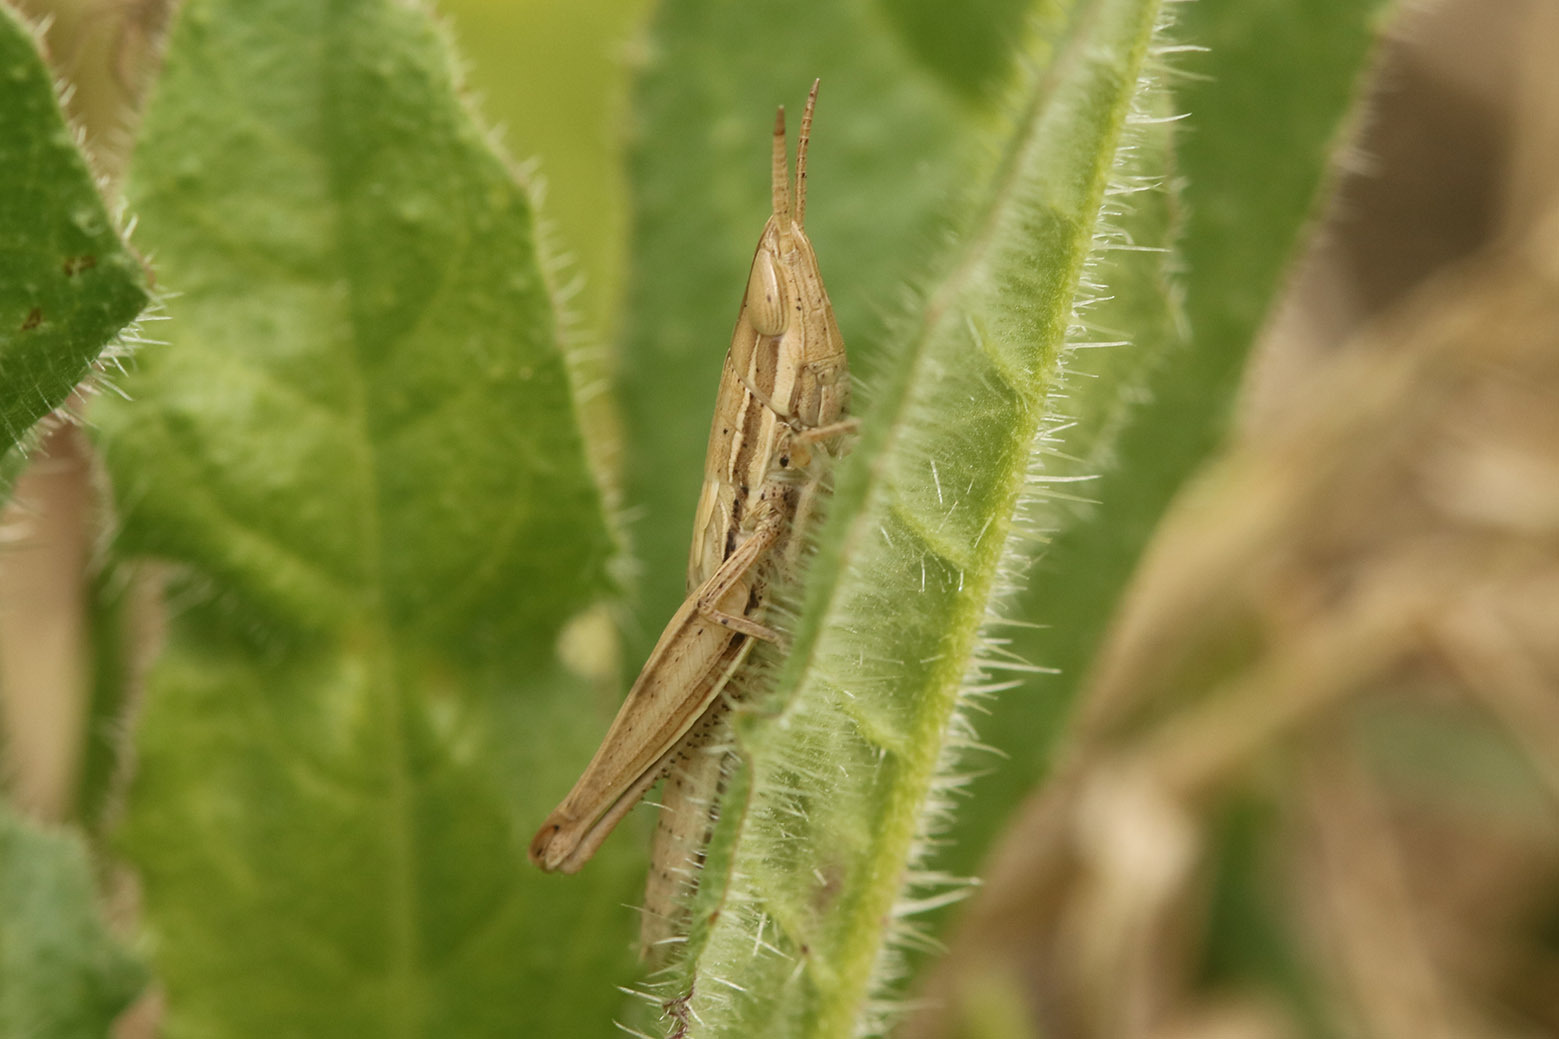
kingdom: Animalia
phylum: Arthropoda
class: Insecta
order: Orthoptera
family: Acrididae
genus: Sinipta
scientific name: Sinipta dalmani
